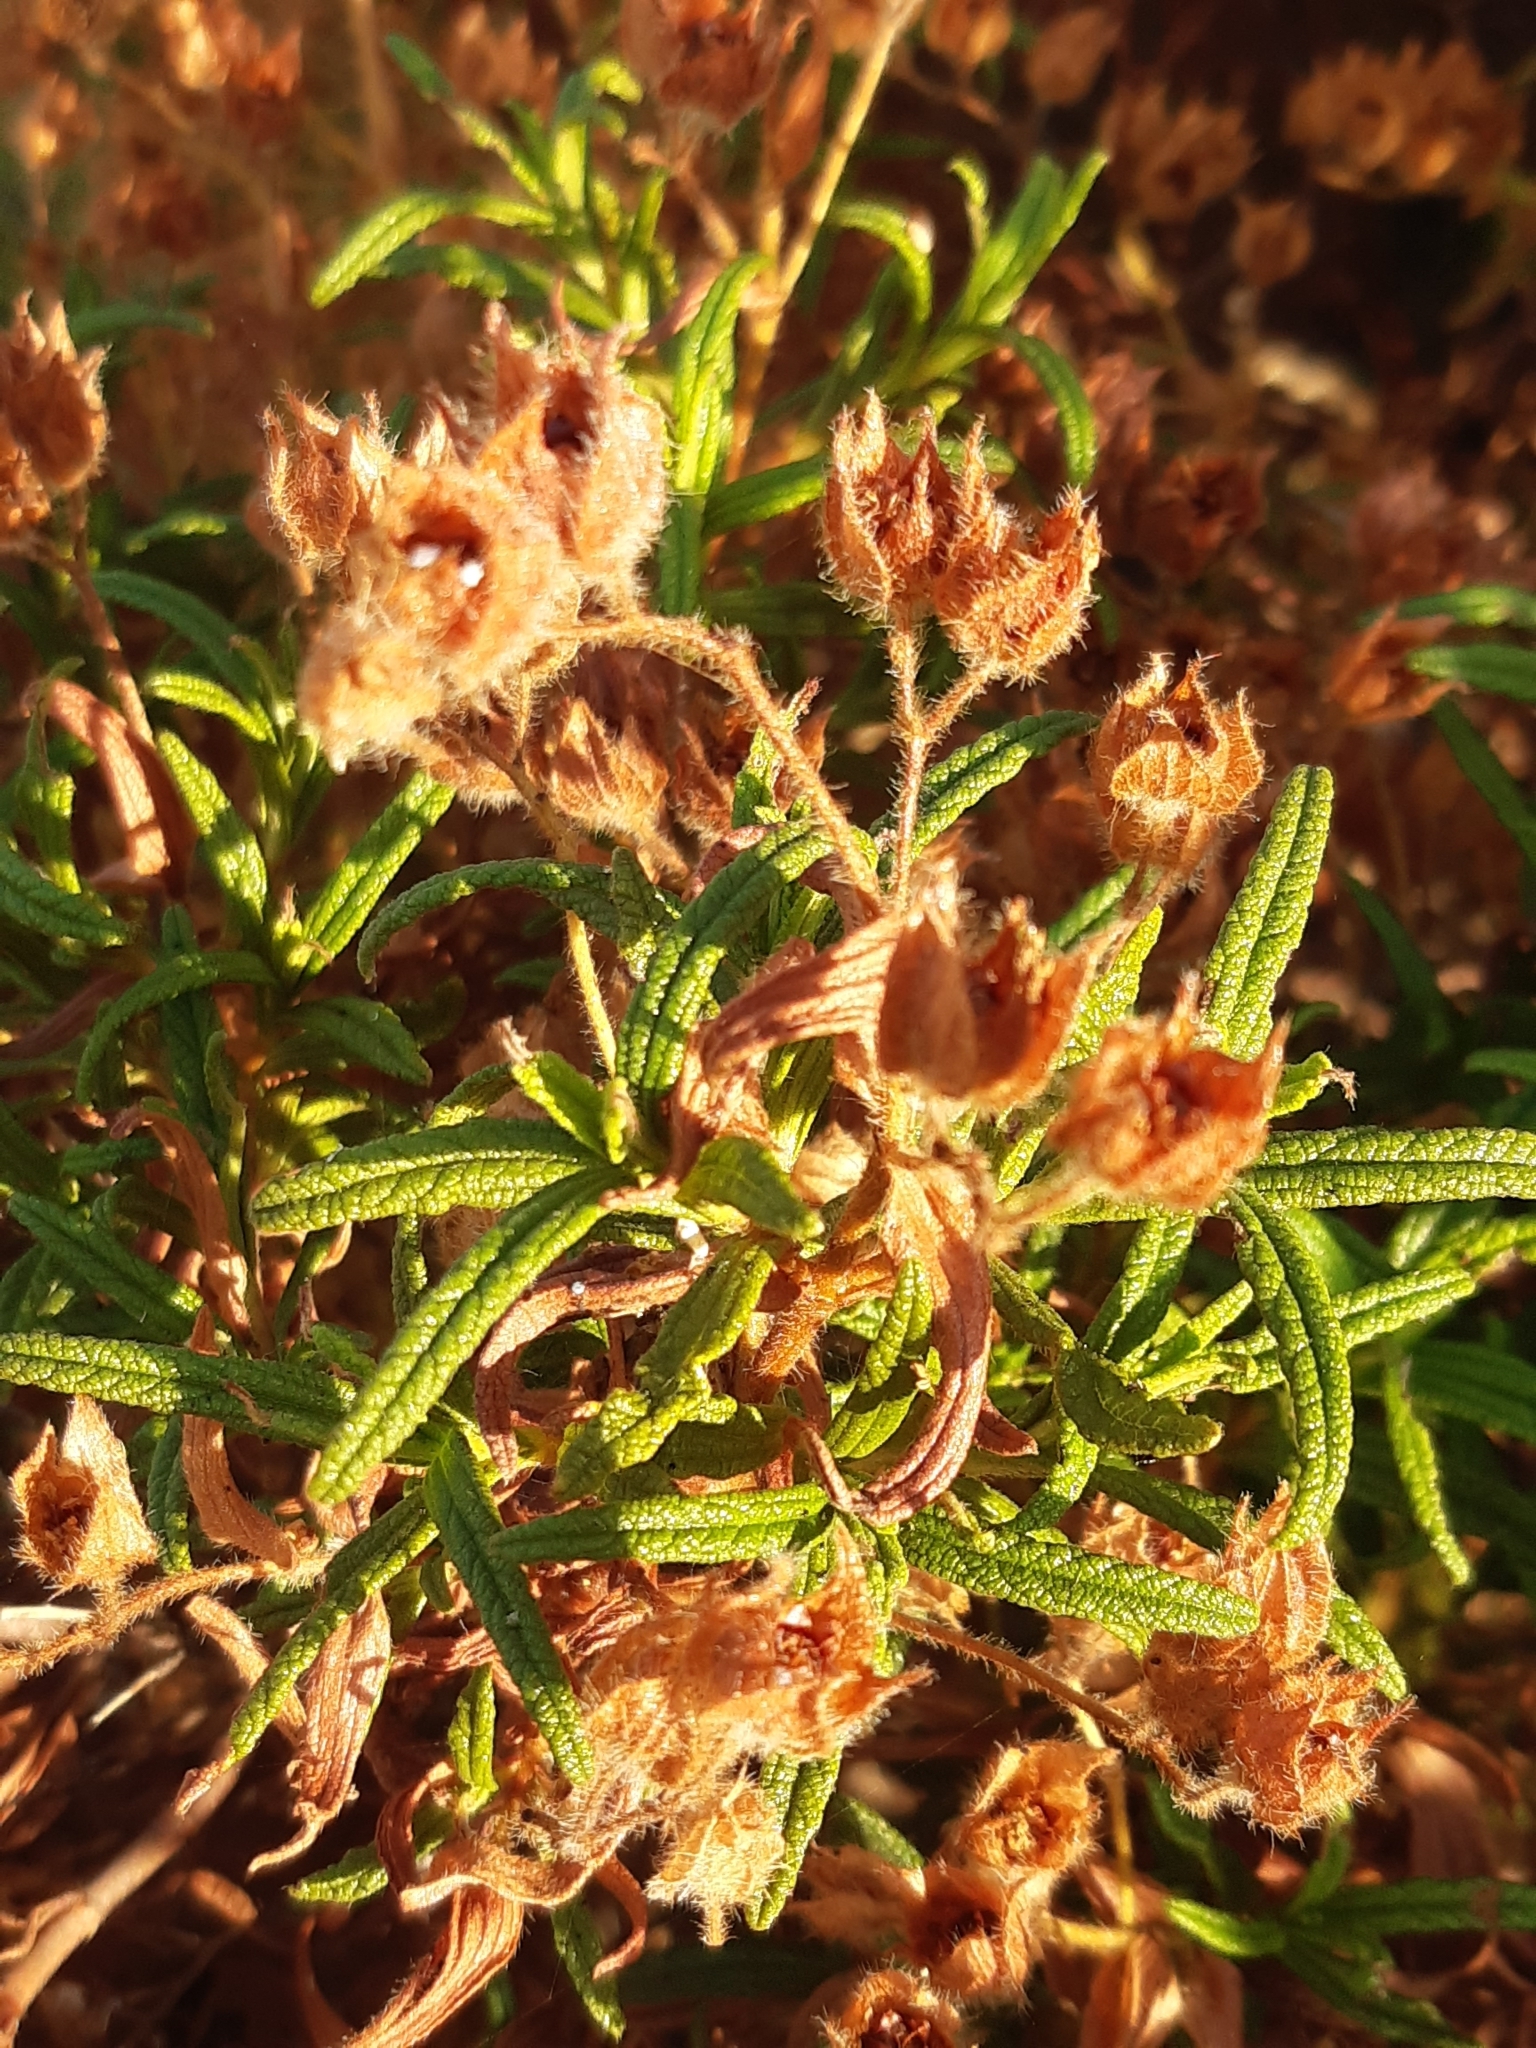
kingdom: Plantae
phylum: Tracheophyta
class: Magnoliopsida
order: Malvales
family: Cistaceae
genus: Cistus
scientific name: Cistus monspeliensis
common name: Montpelier cistus
